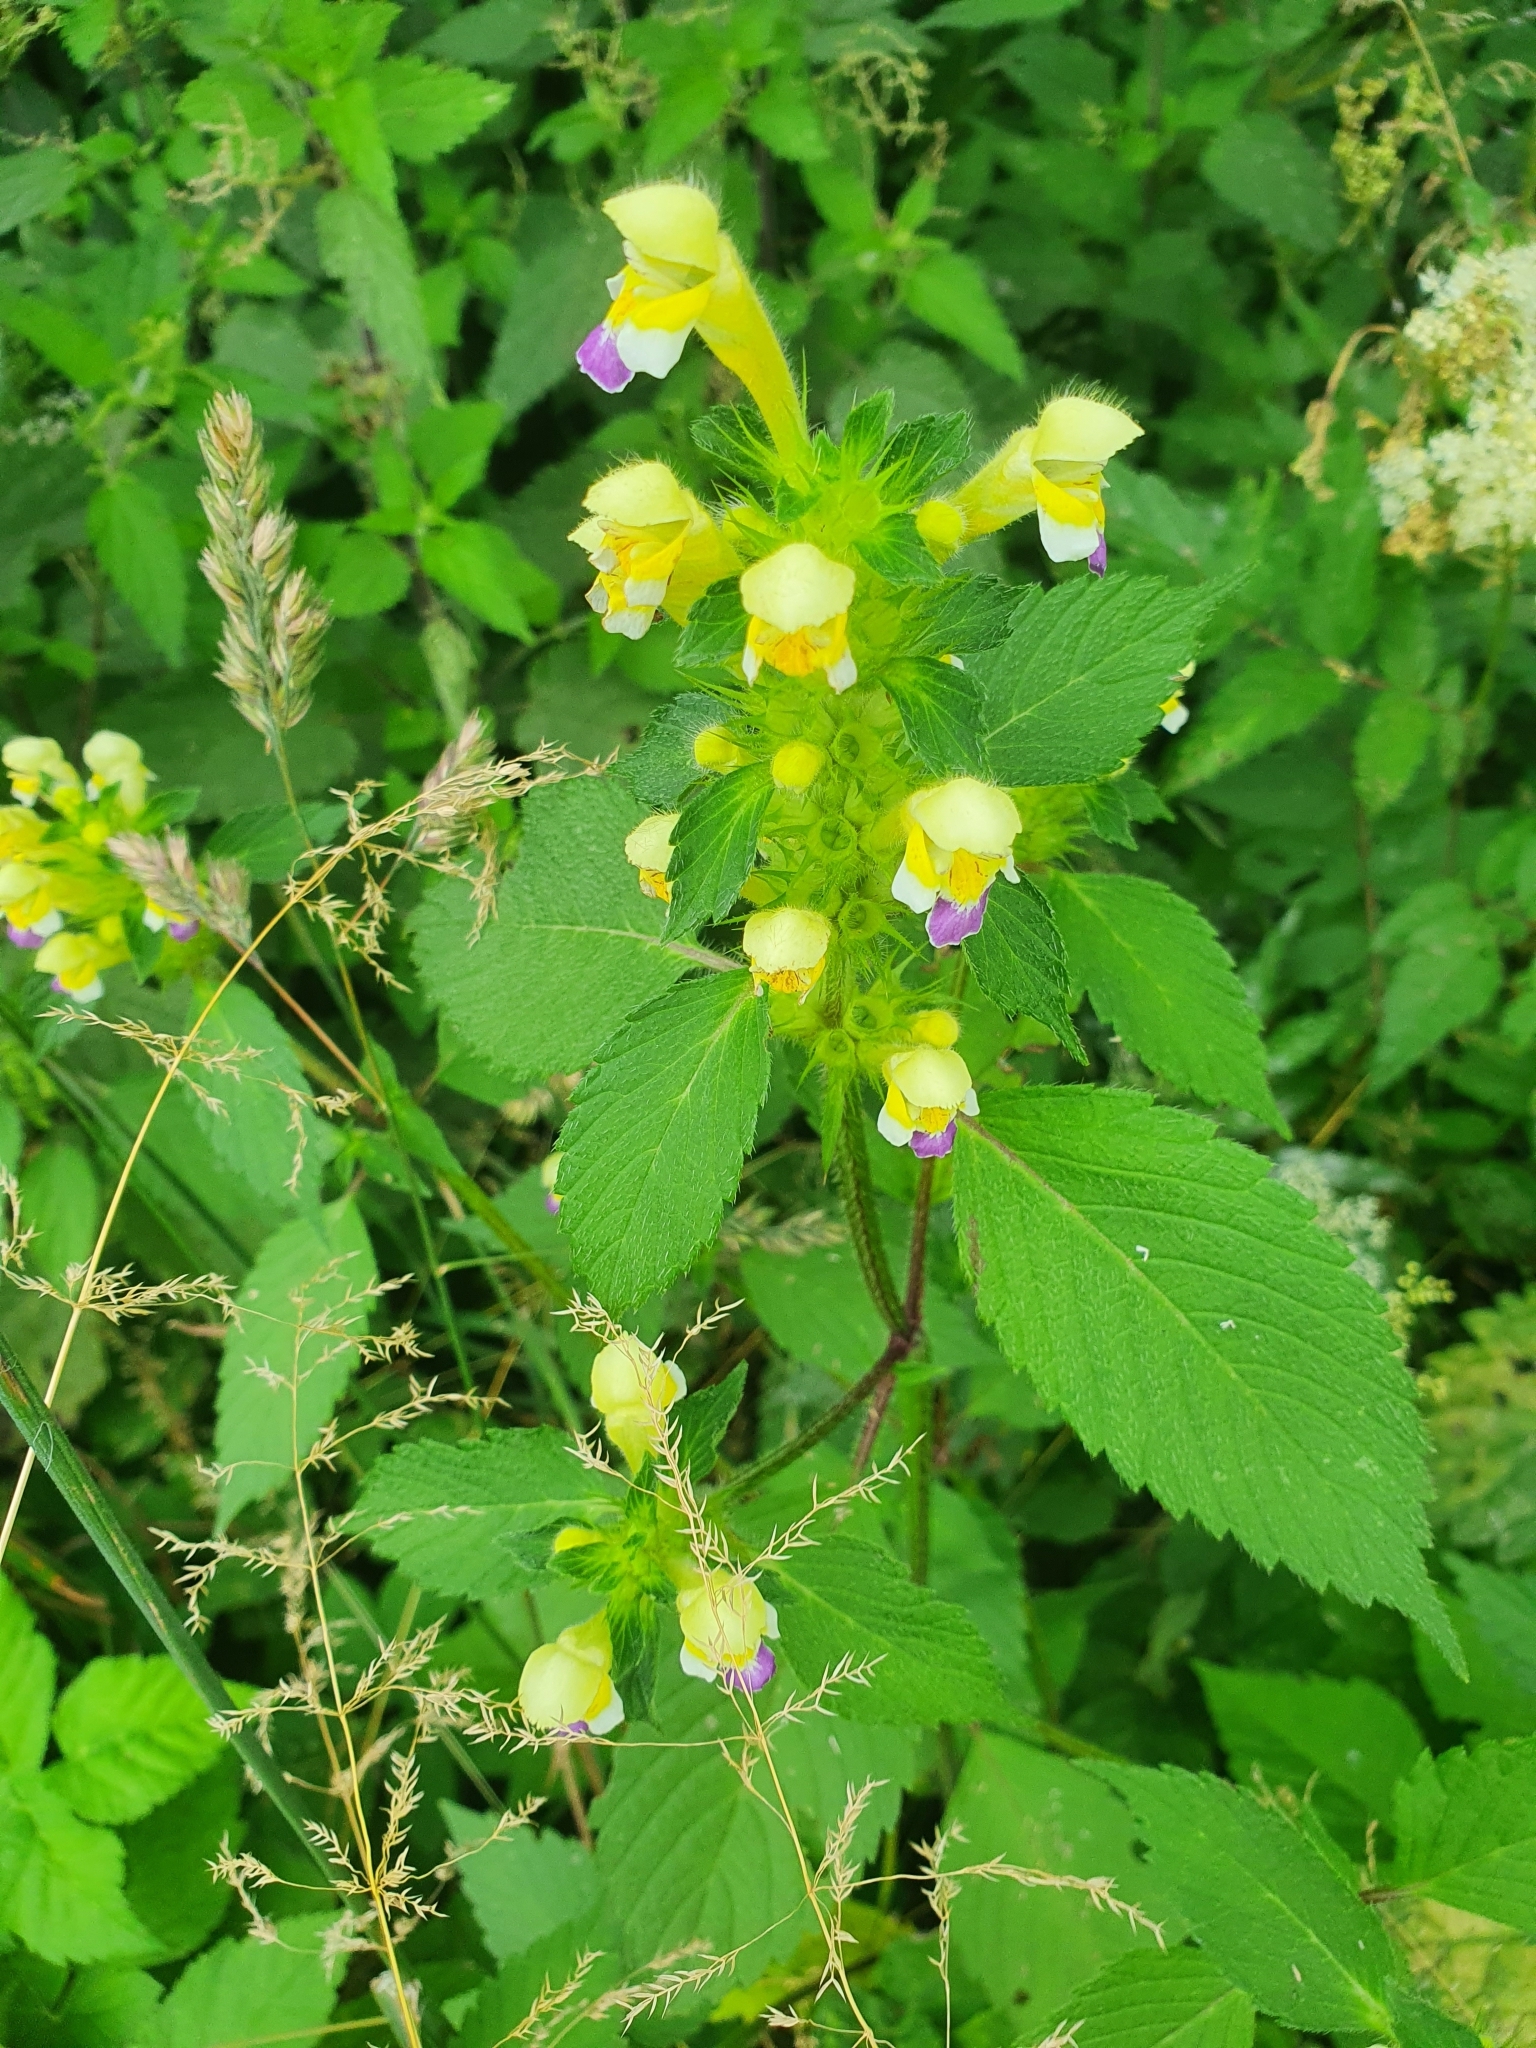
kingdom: Plantae
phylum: Tracheophyta
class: Magnoliopsida
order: Lamiales
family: Lamiaceae
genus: Galeopsis
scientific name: Galeopsis speciosa
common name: Large-flowered hemp-nettle
